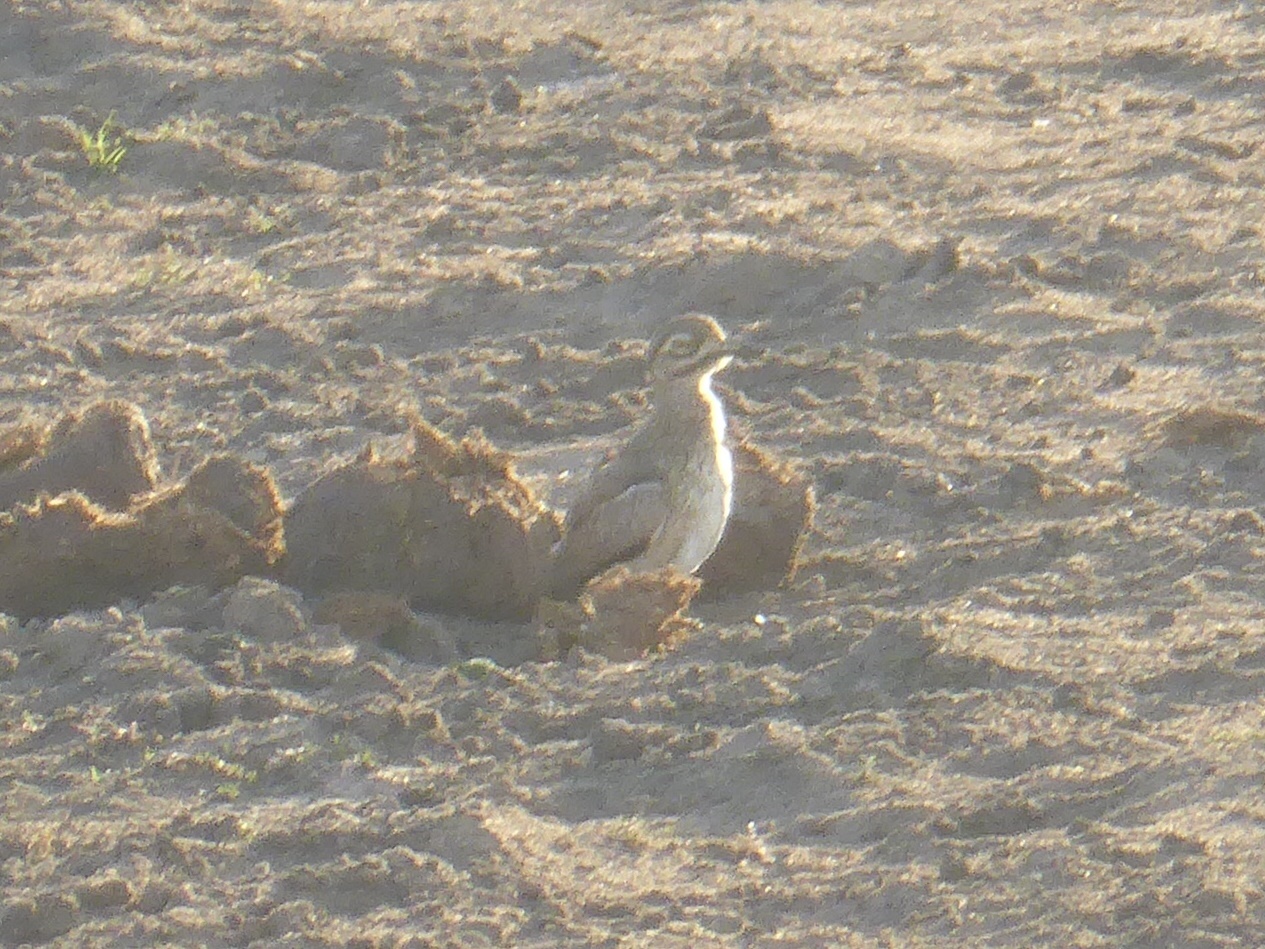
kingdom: Animalia
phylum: Chordata
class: Aves
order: Charadriiformes
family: Burhinidae
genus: Burhinus
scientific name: Burhinus vermiculatus
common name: Water thick-knee
